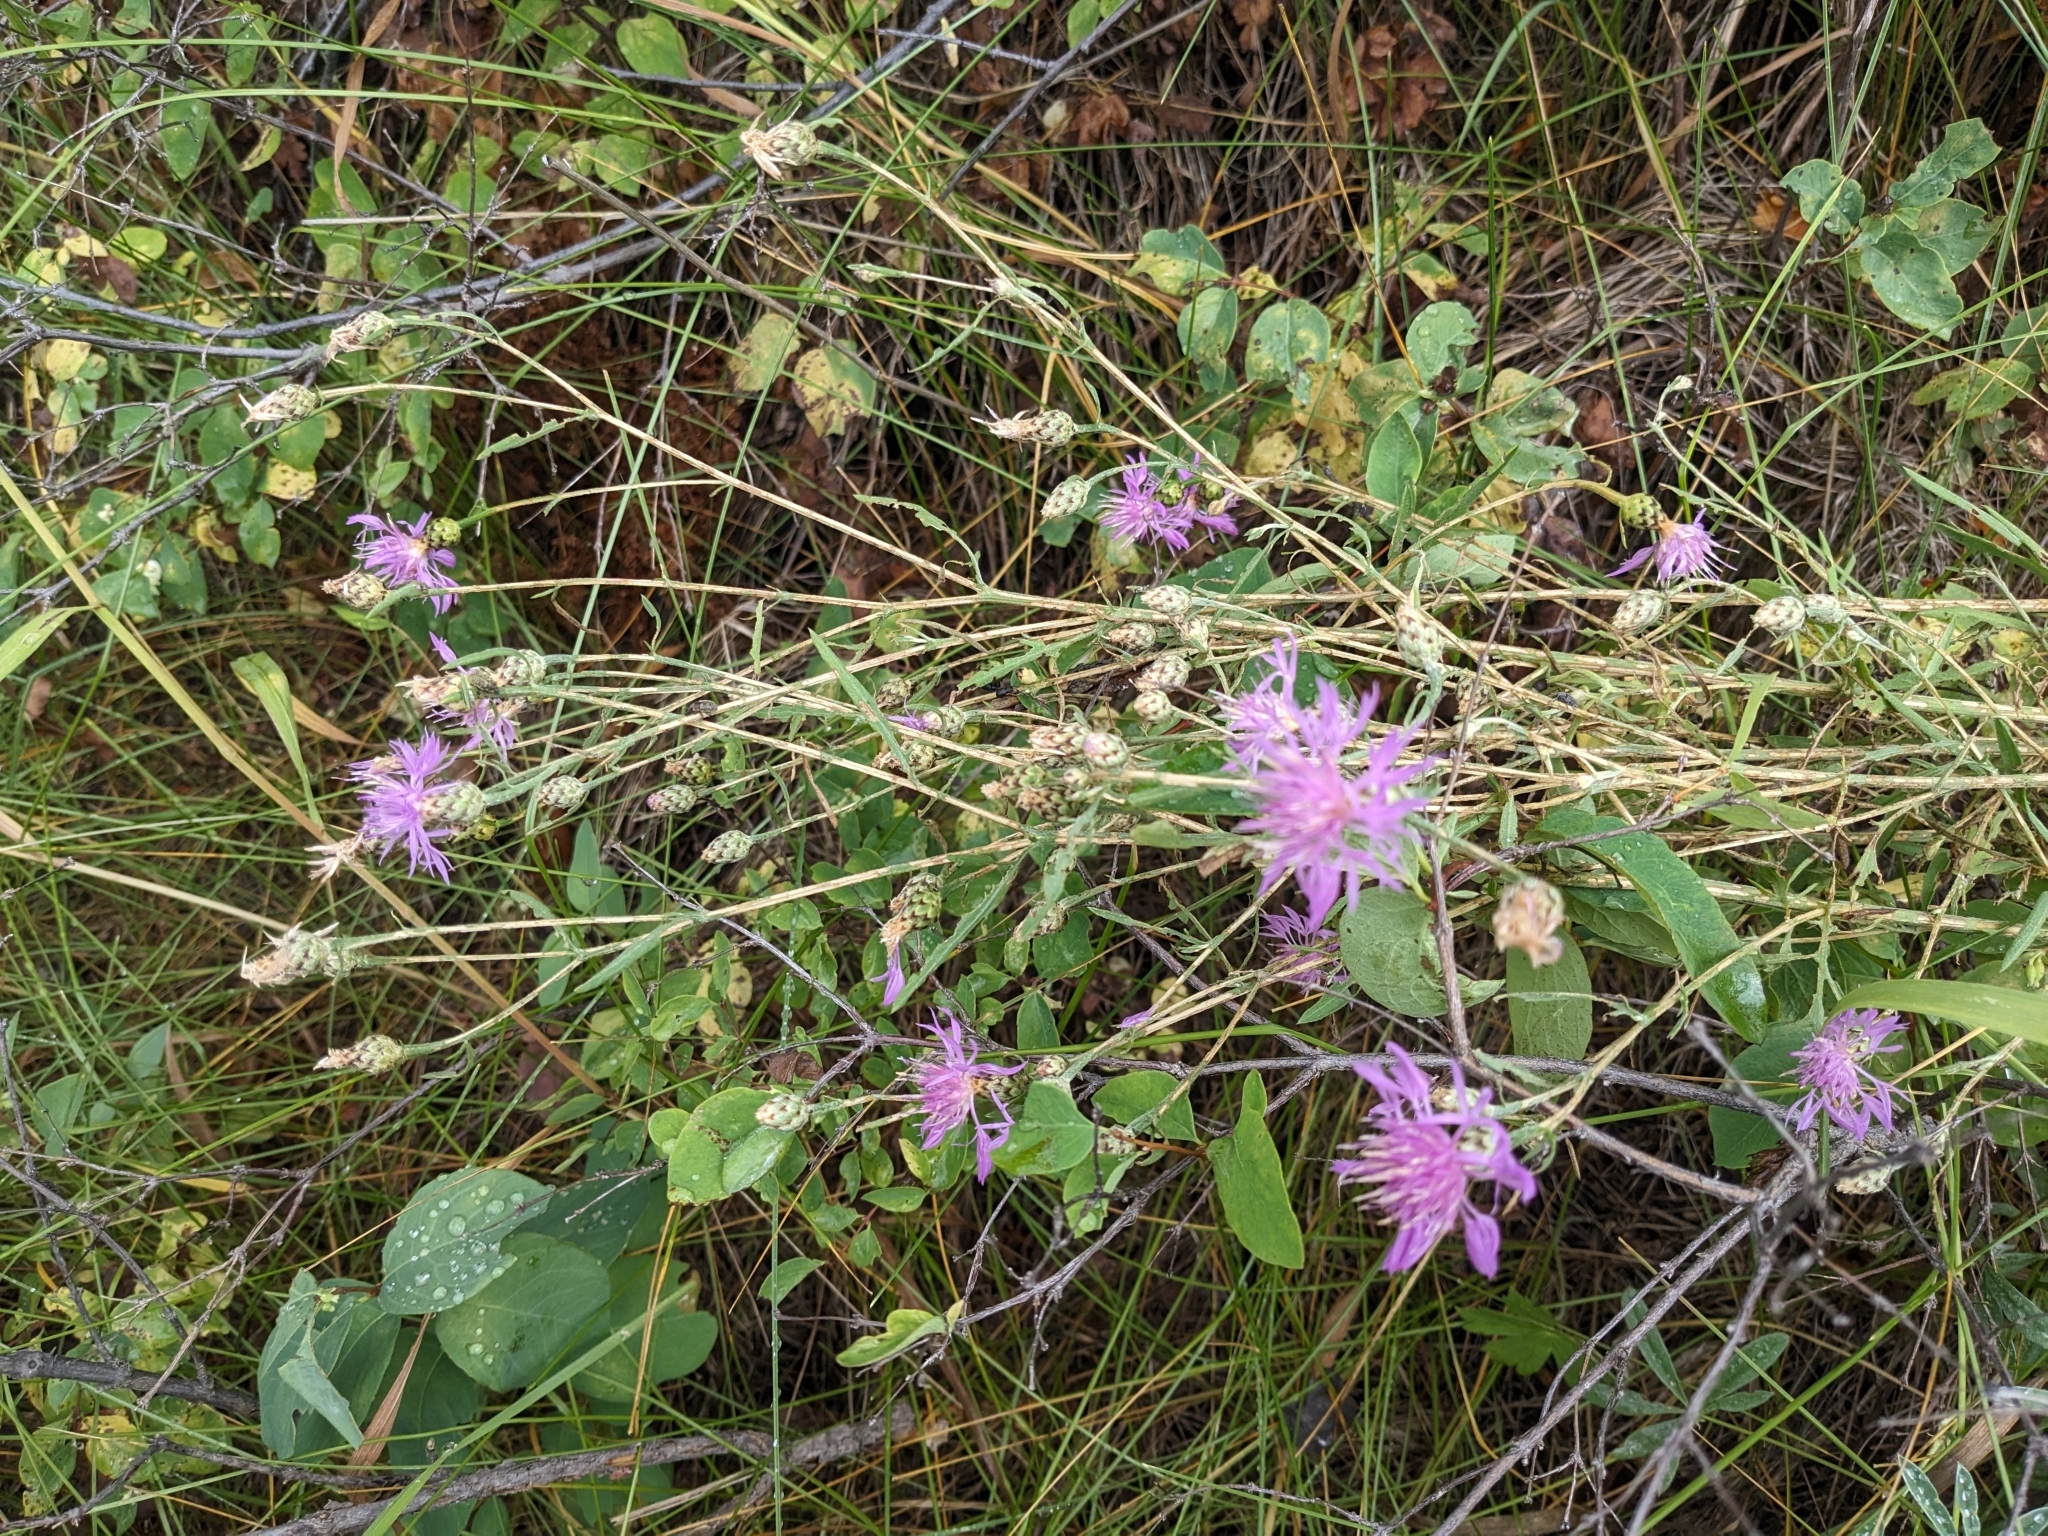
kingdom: Plantae
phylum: Tracheophyta
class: Magnoliopsida
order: Asterales
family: Asteraceae
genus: Centaurea
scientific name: Centaurea stoebe
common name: Spotted knapweed
